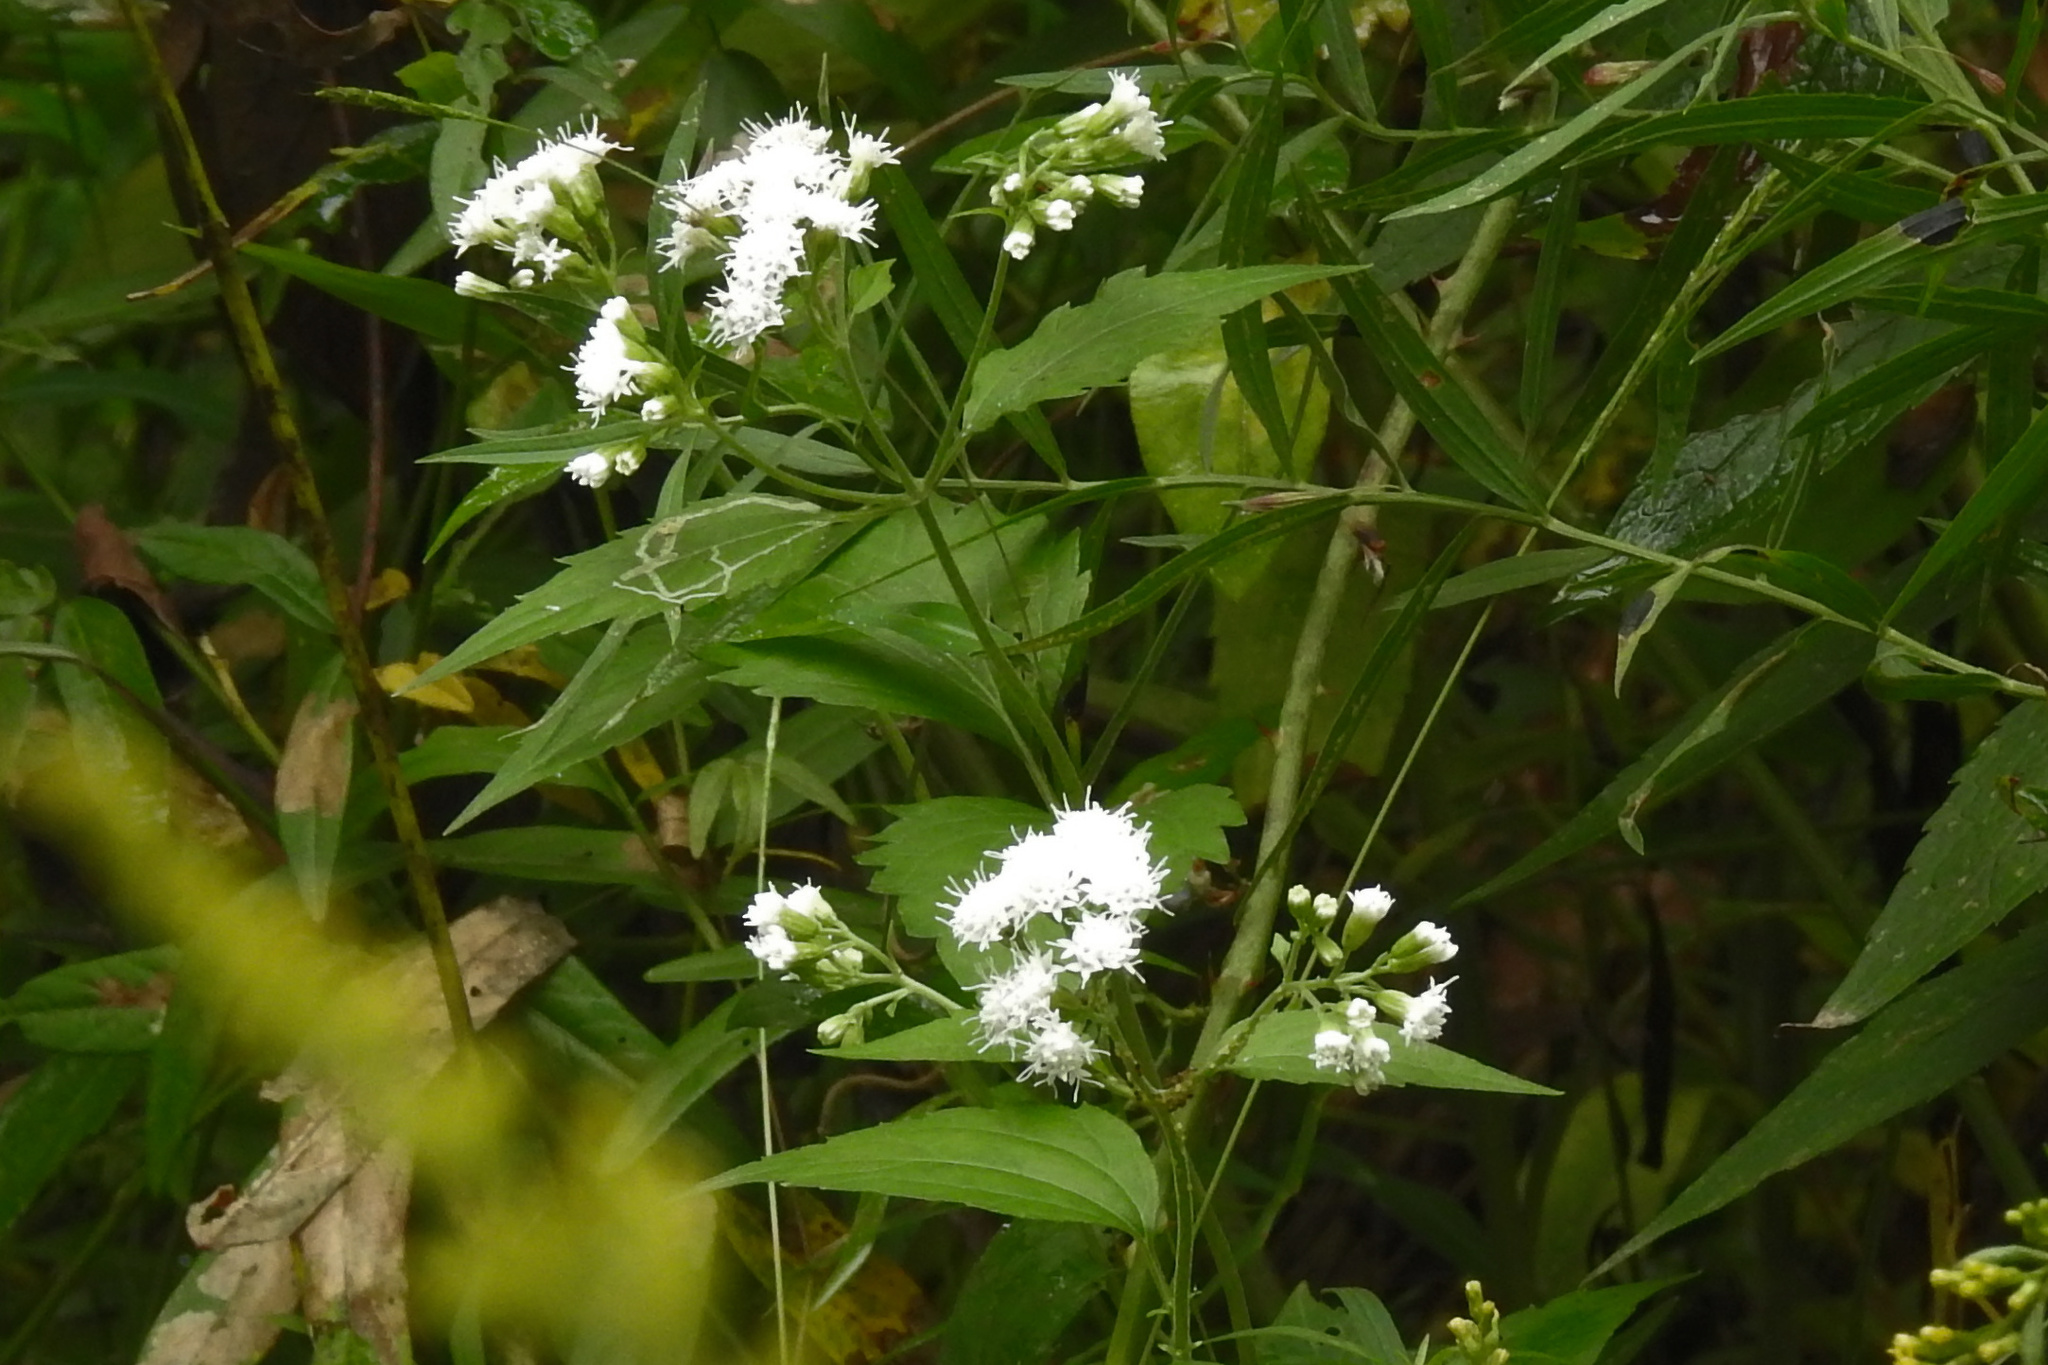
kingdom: Plantae
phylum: Tracheophyta
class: Magnoliopsida
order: Asterales
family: Asteraceae
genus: Ageratina
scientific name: Ageratina altissima
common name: White snakeroot
